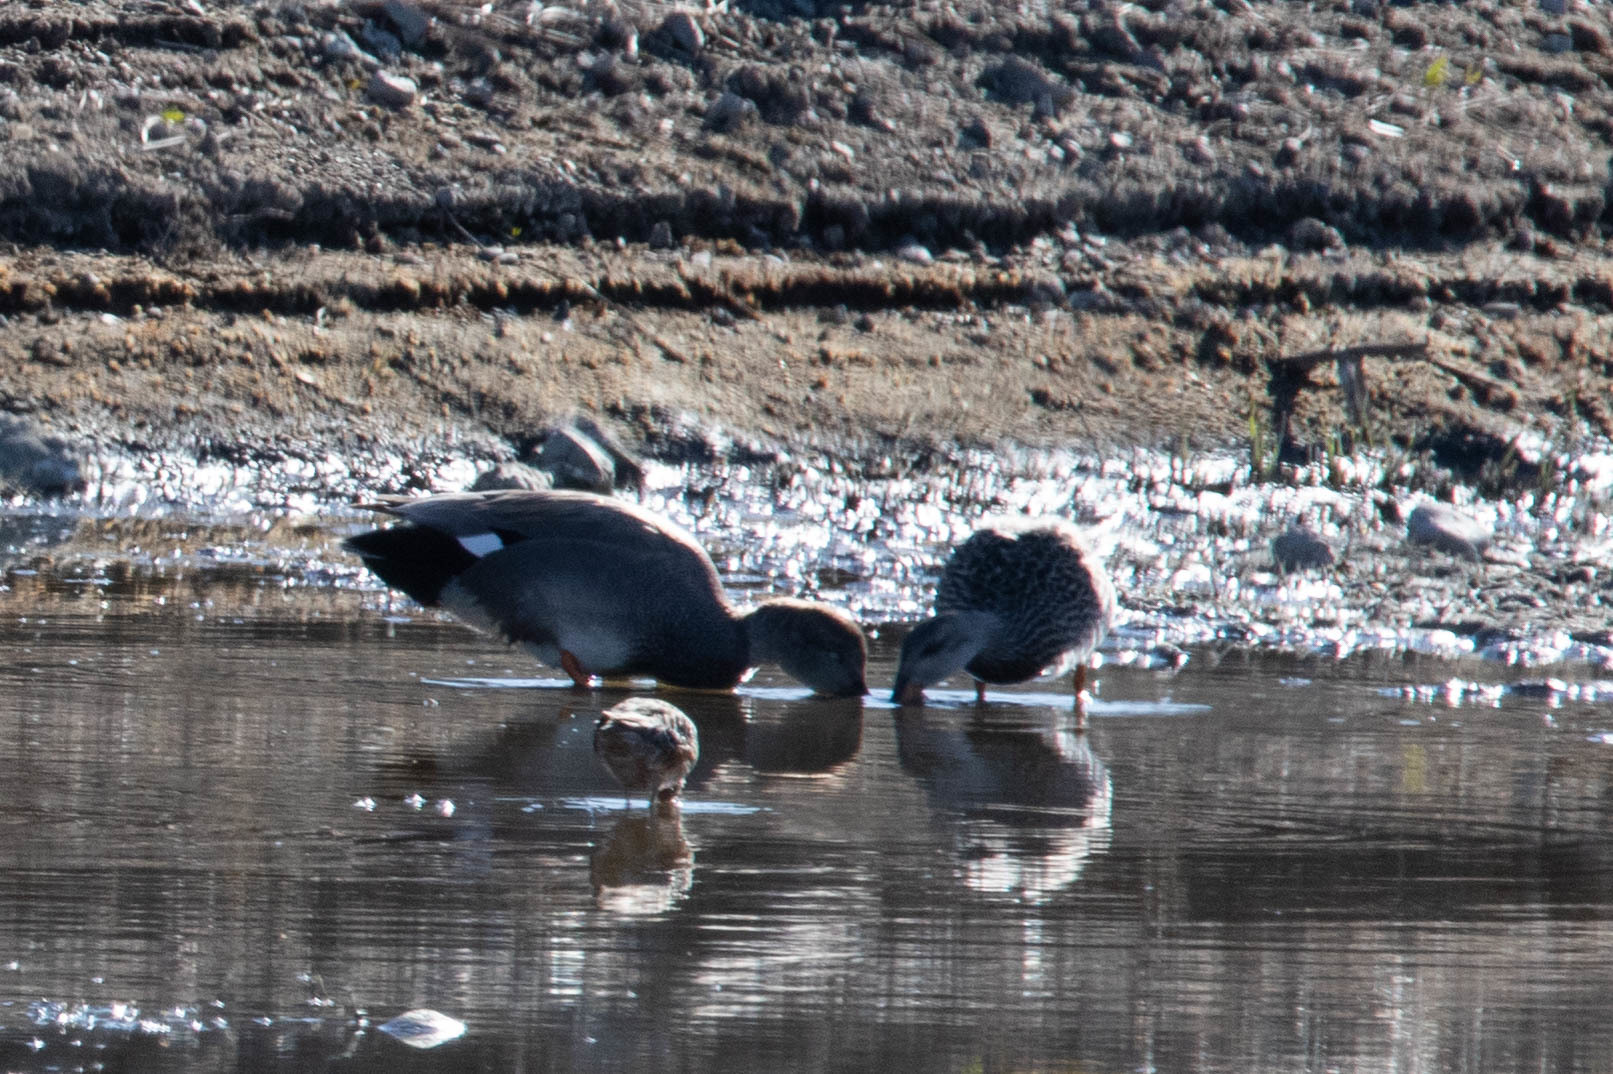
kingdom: Animalia
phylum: Chordata
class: Aves
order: Anseriformes
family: Anatidae
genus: Mareca
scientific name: Mareca strepera
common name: Gadwall
